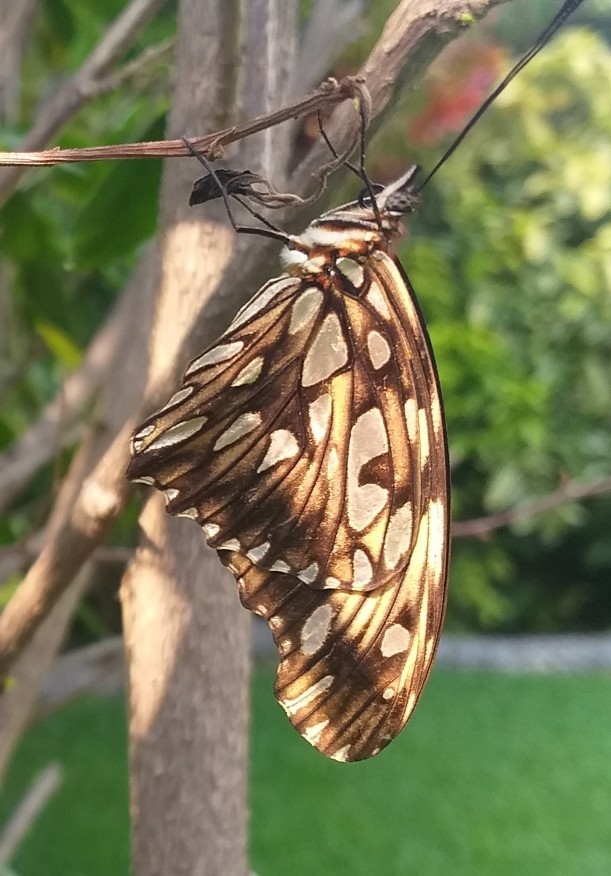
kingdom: Animalia
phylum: Arthropoda
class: Insecta
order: Lepidoptera
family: Nymphalidae
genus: Dione
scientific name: Dione juno
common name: Juno silverspot
